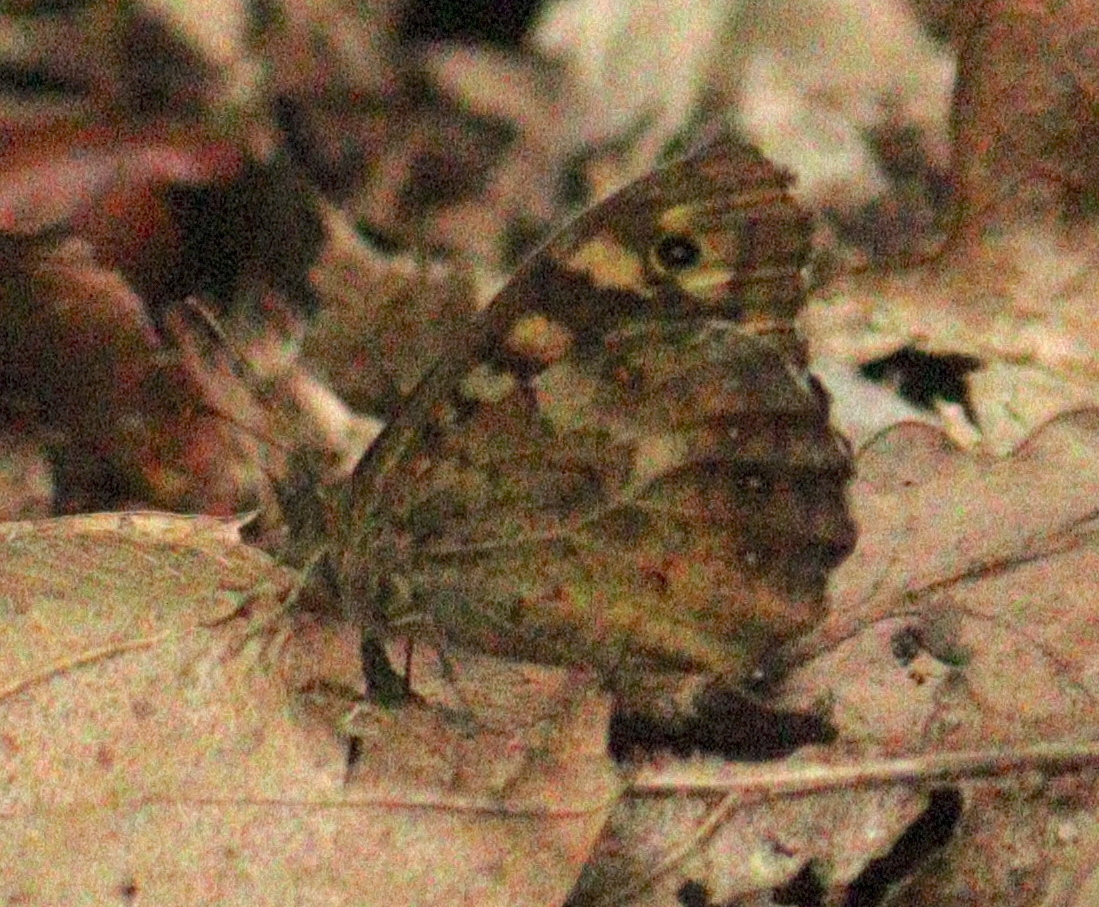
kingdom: Animalia
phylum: Arthropoda
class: Insecta
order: Lepidoptera
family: Nymphalidae
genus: Pararge
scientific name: Pararge aegeria
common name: Speckled wood
